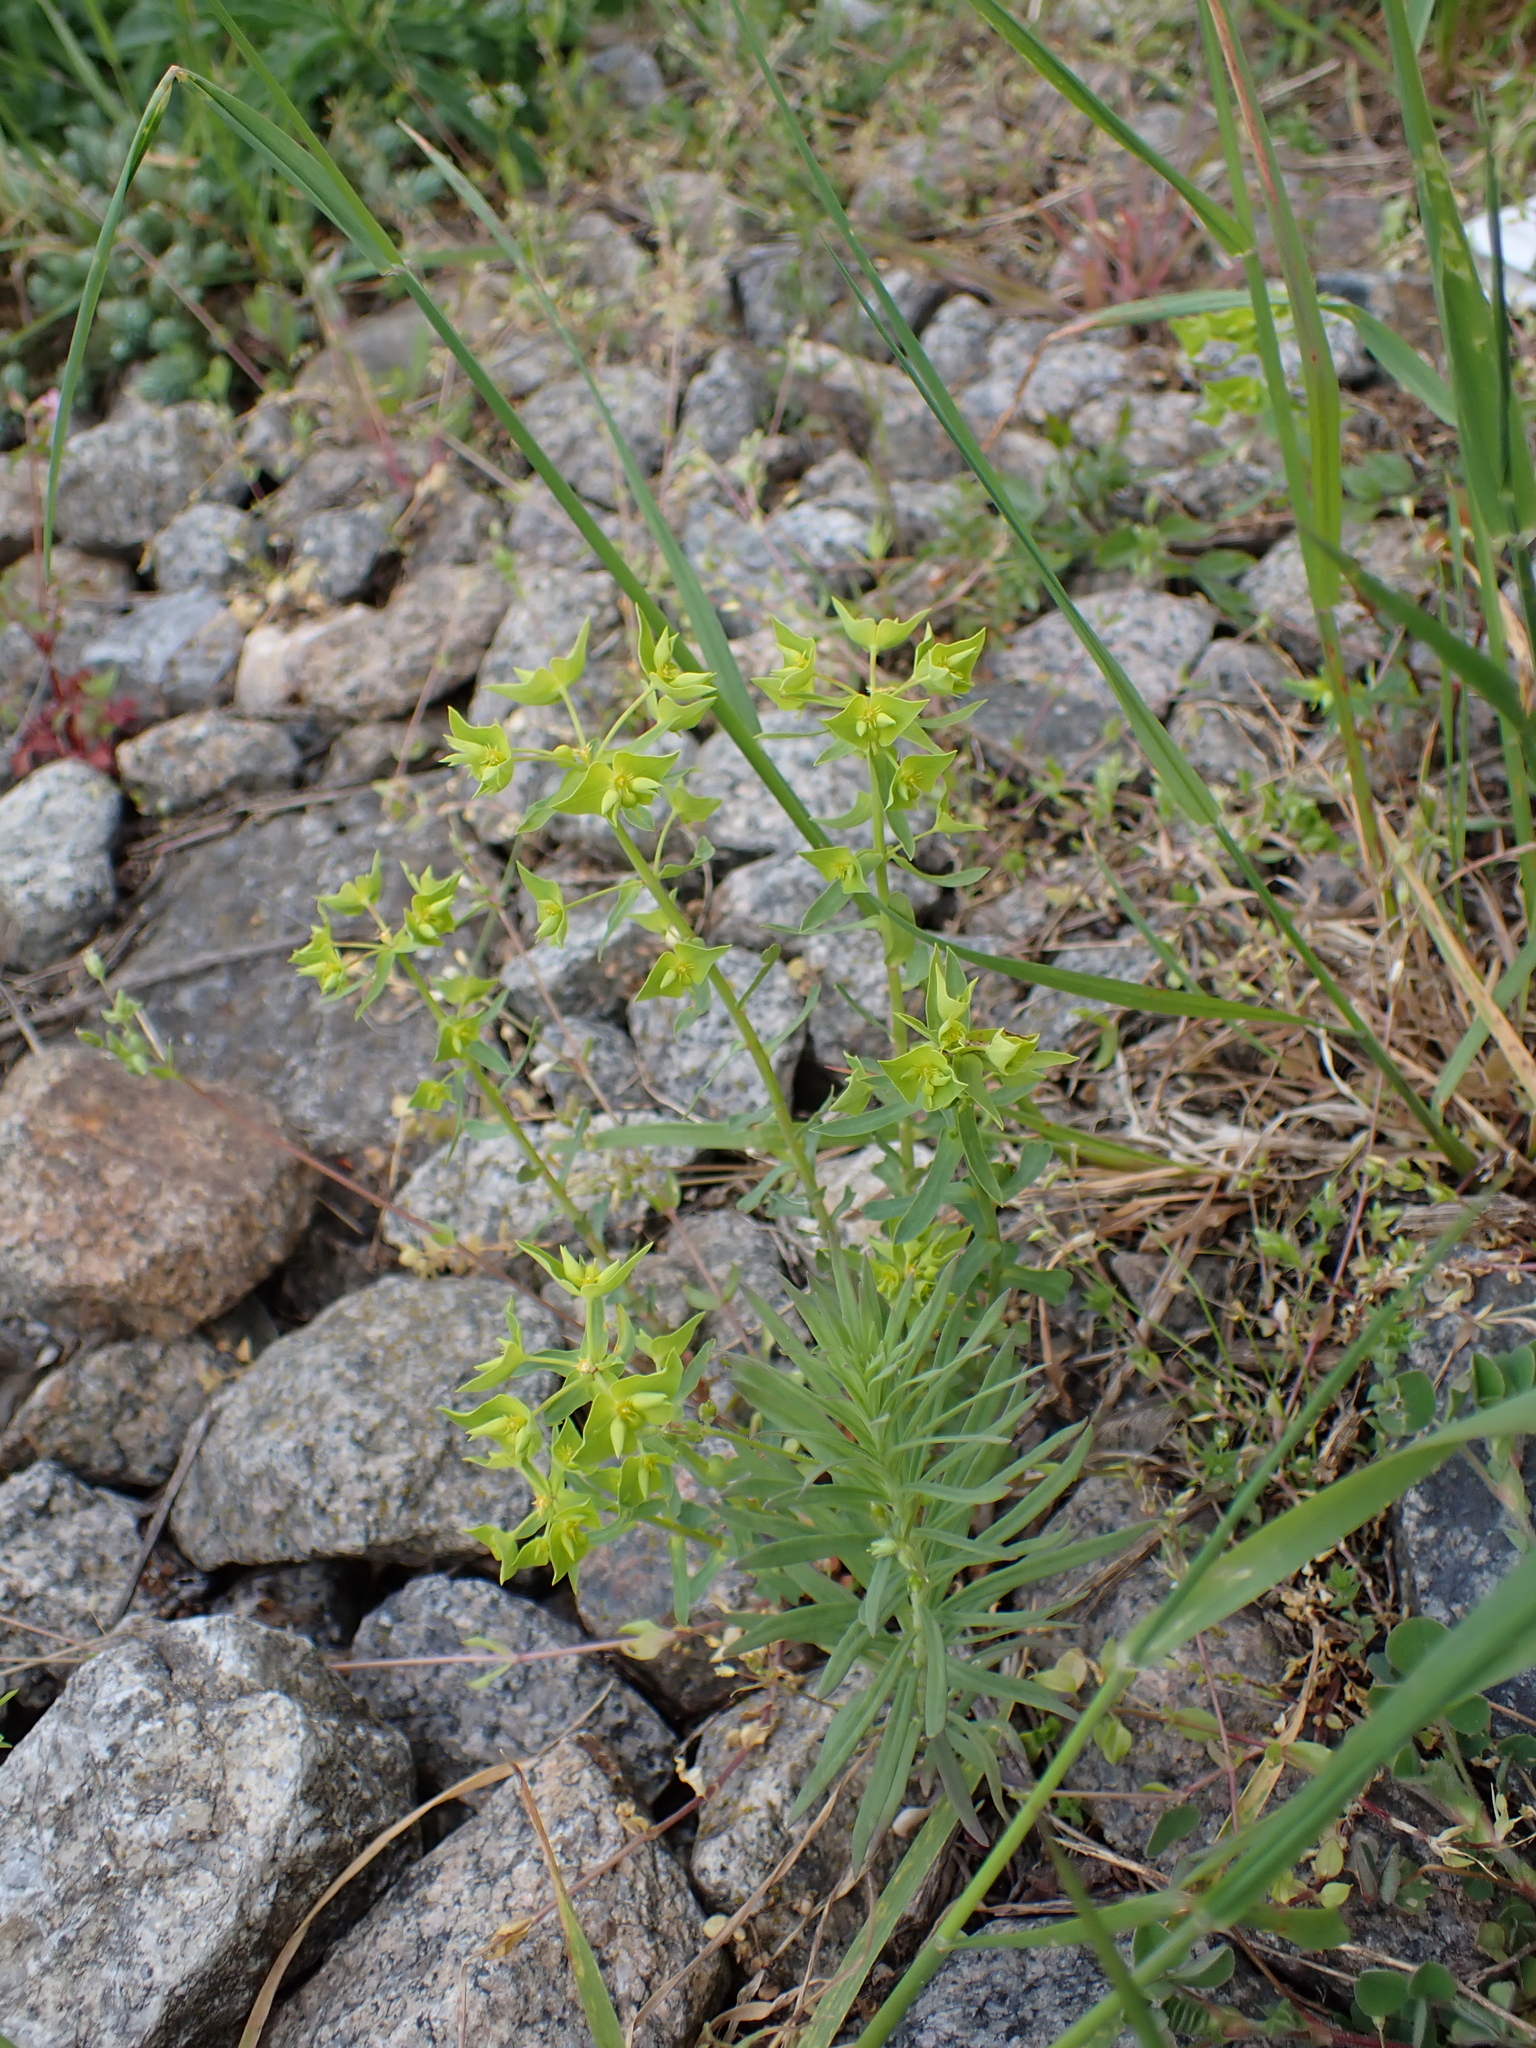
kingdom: Plantae
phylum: Tracheophyta
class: Magnoliopsida
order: Malpighiales
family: Euphorbiaceae
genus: Euphorbia
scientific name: Euphorbia taurinensis
